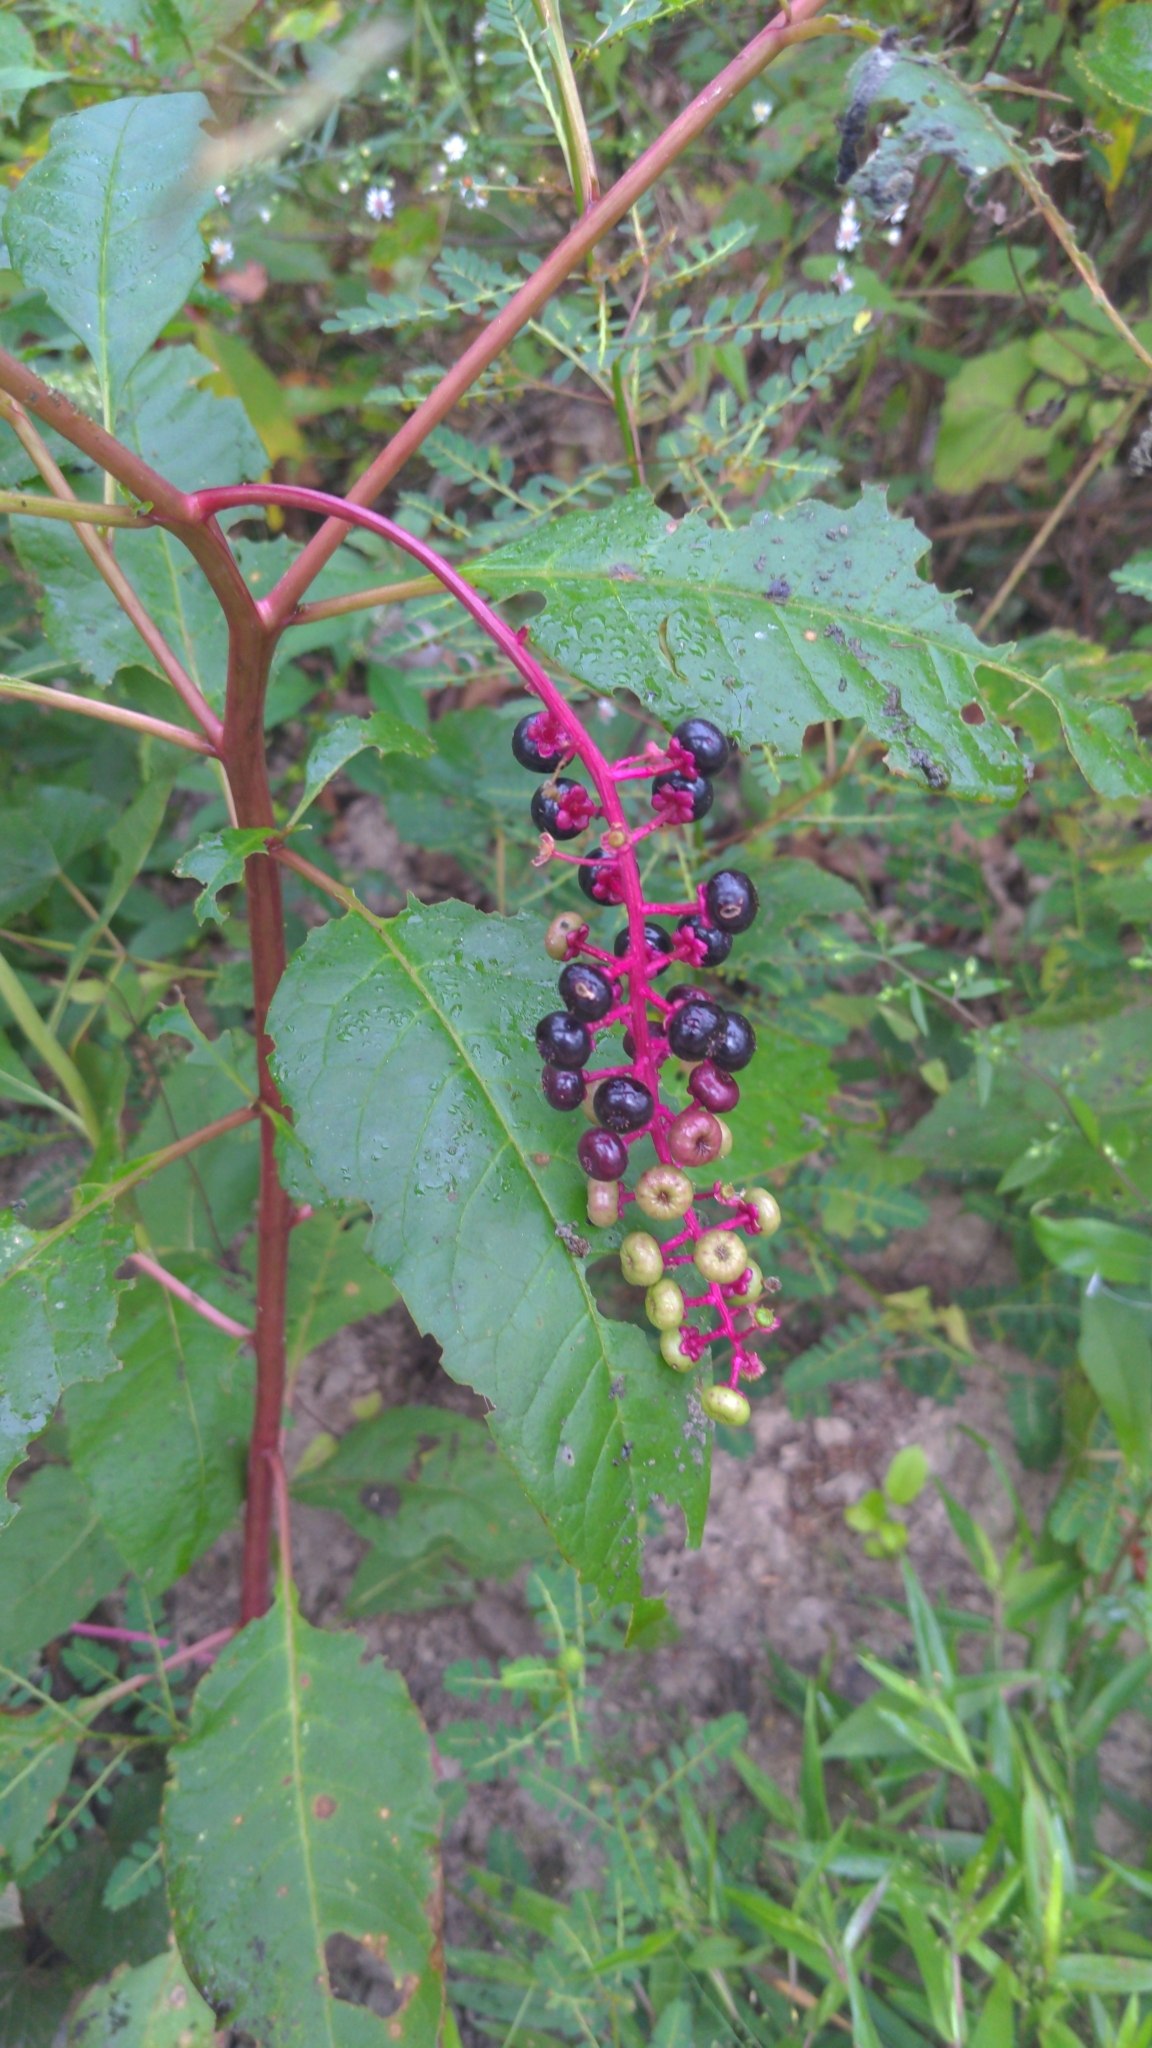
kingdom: Plantae
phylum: Tracheophyta
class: Magnoliopsida
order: Caryophyllales
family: Phytolaccaceae
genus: Phytolacca
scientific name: Phytolacca americana
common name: American pokeweed
